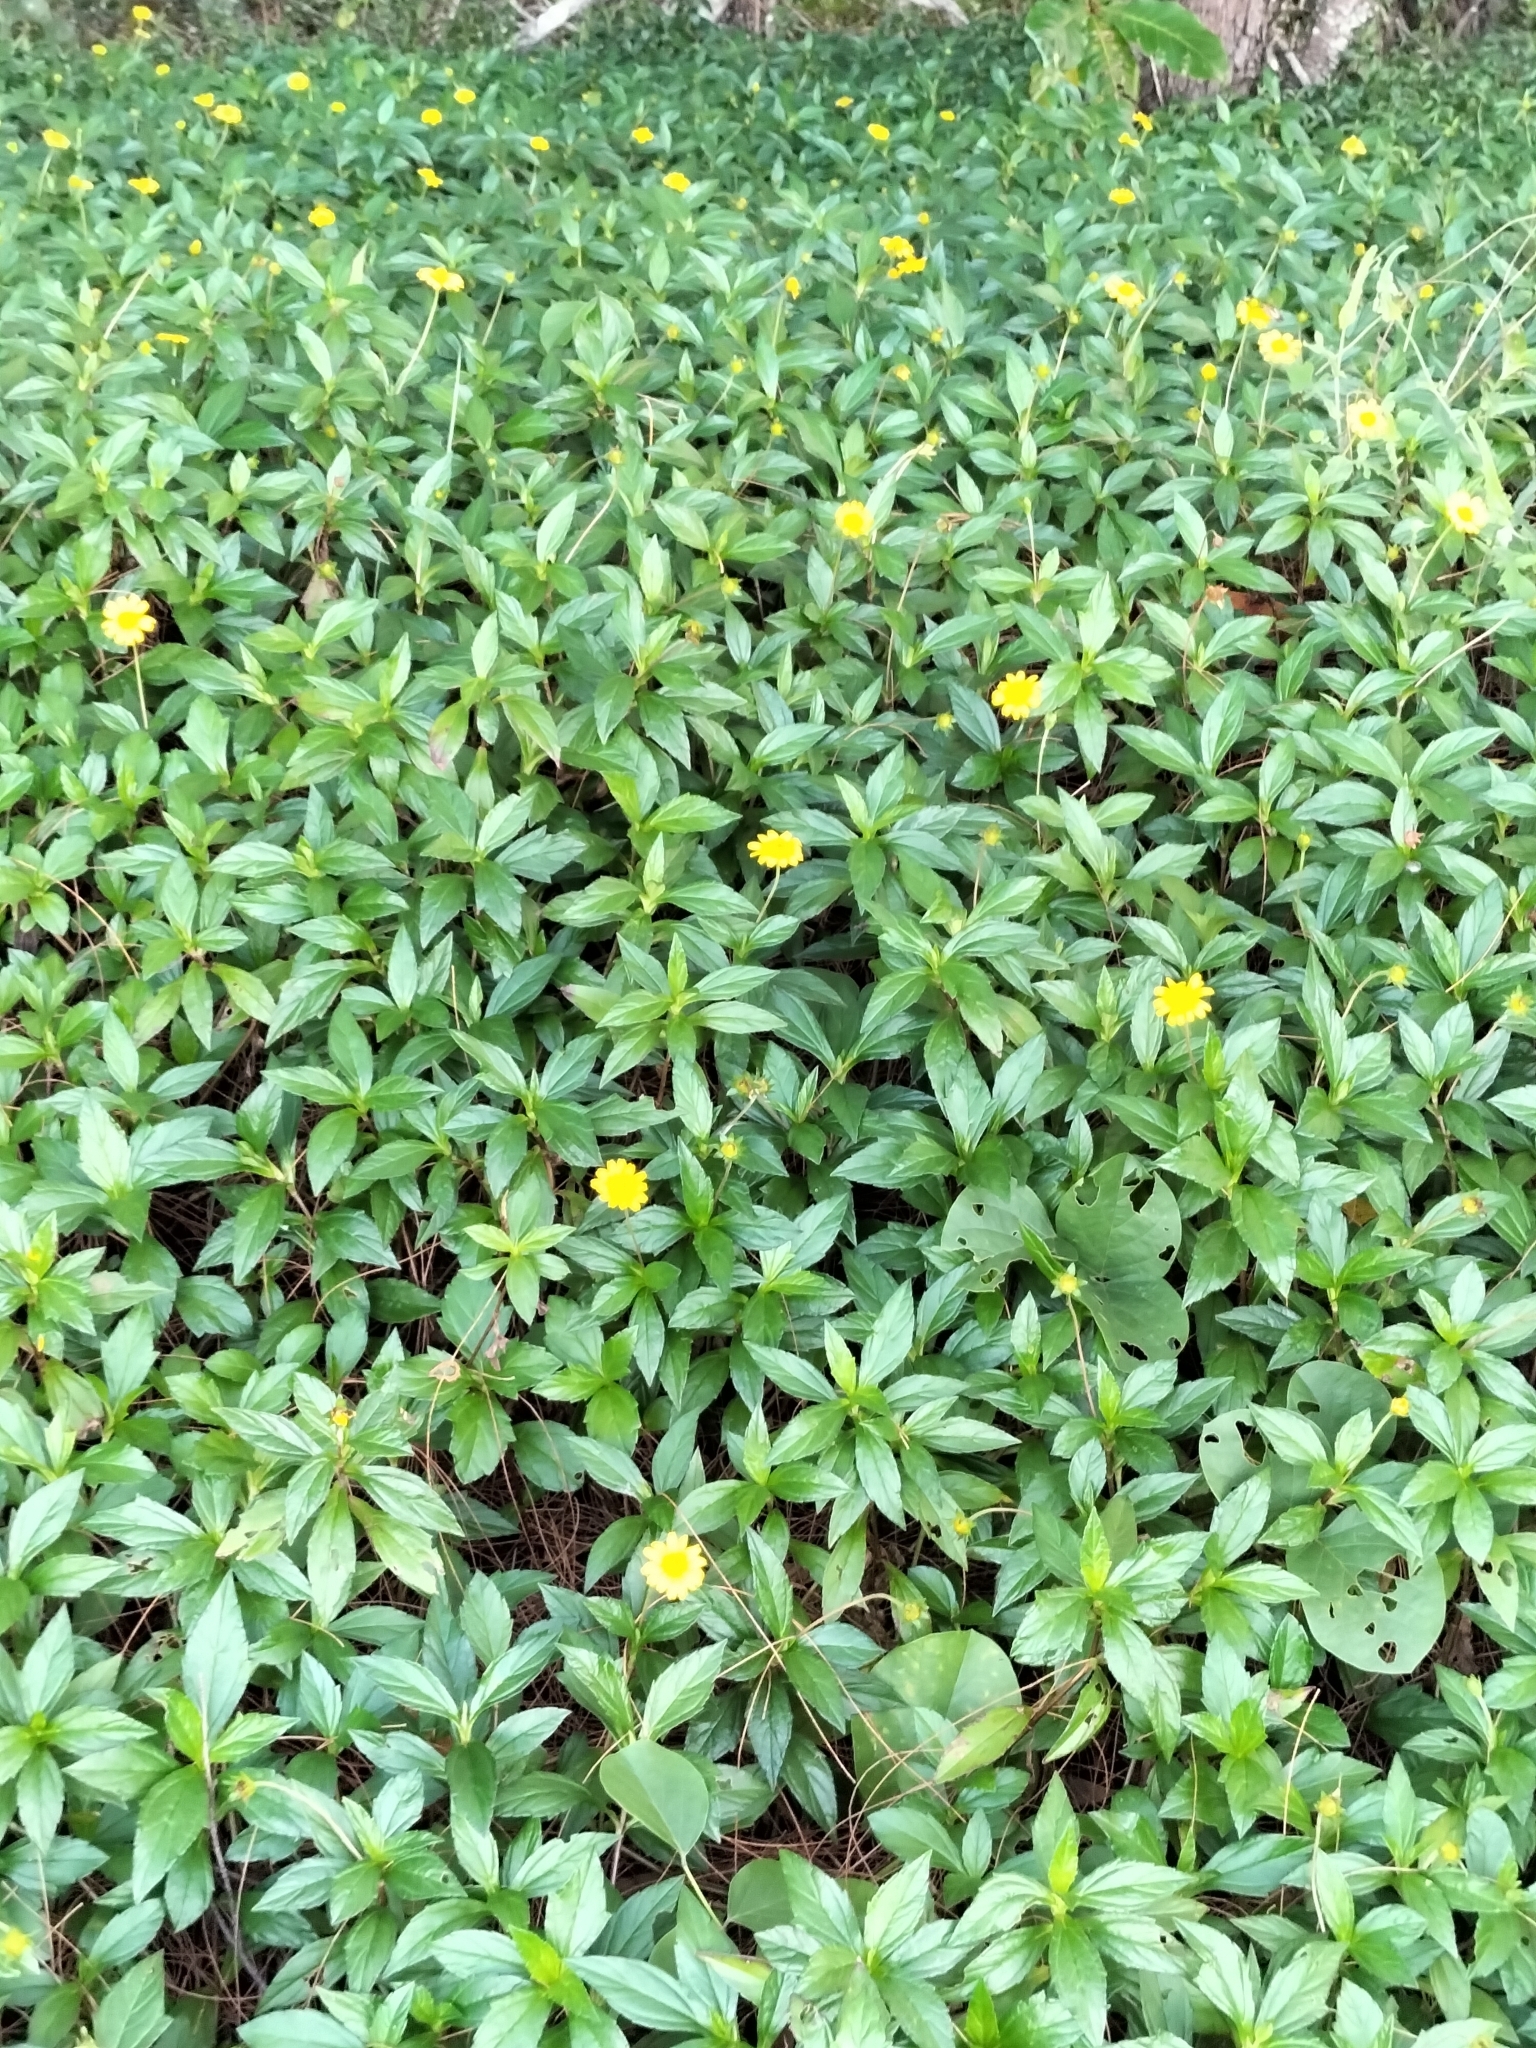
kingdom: Plantae
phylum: Tracheophyta
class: Magnoliopsida
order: Asterales
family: Asteraceae
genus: Sphagneticola
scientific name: Sphagneticola trilobata
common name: Bay biscayne creeping-oxeye
